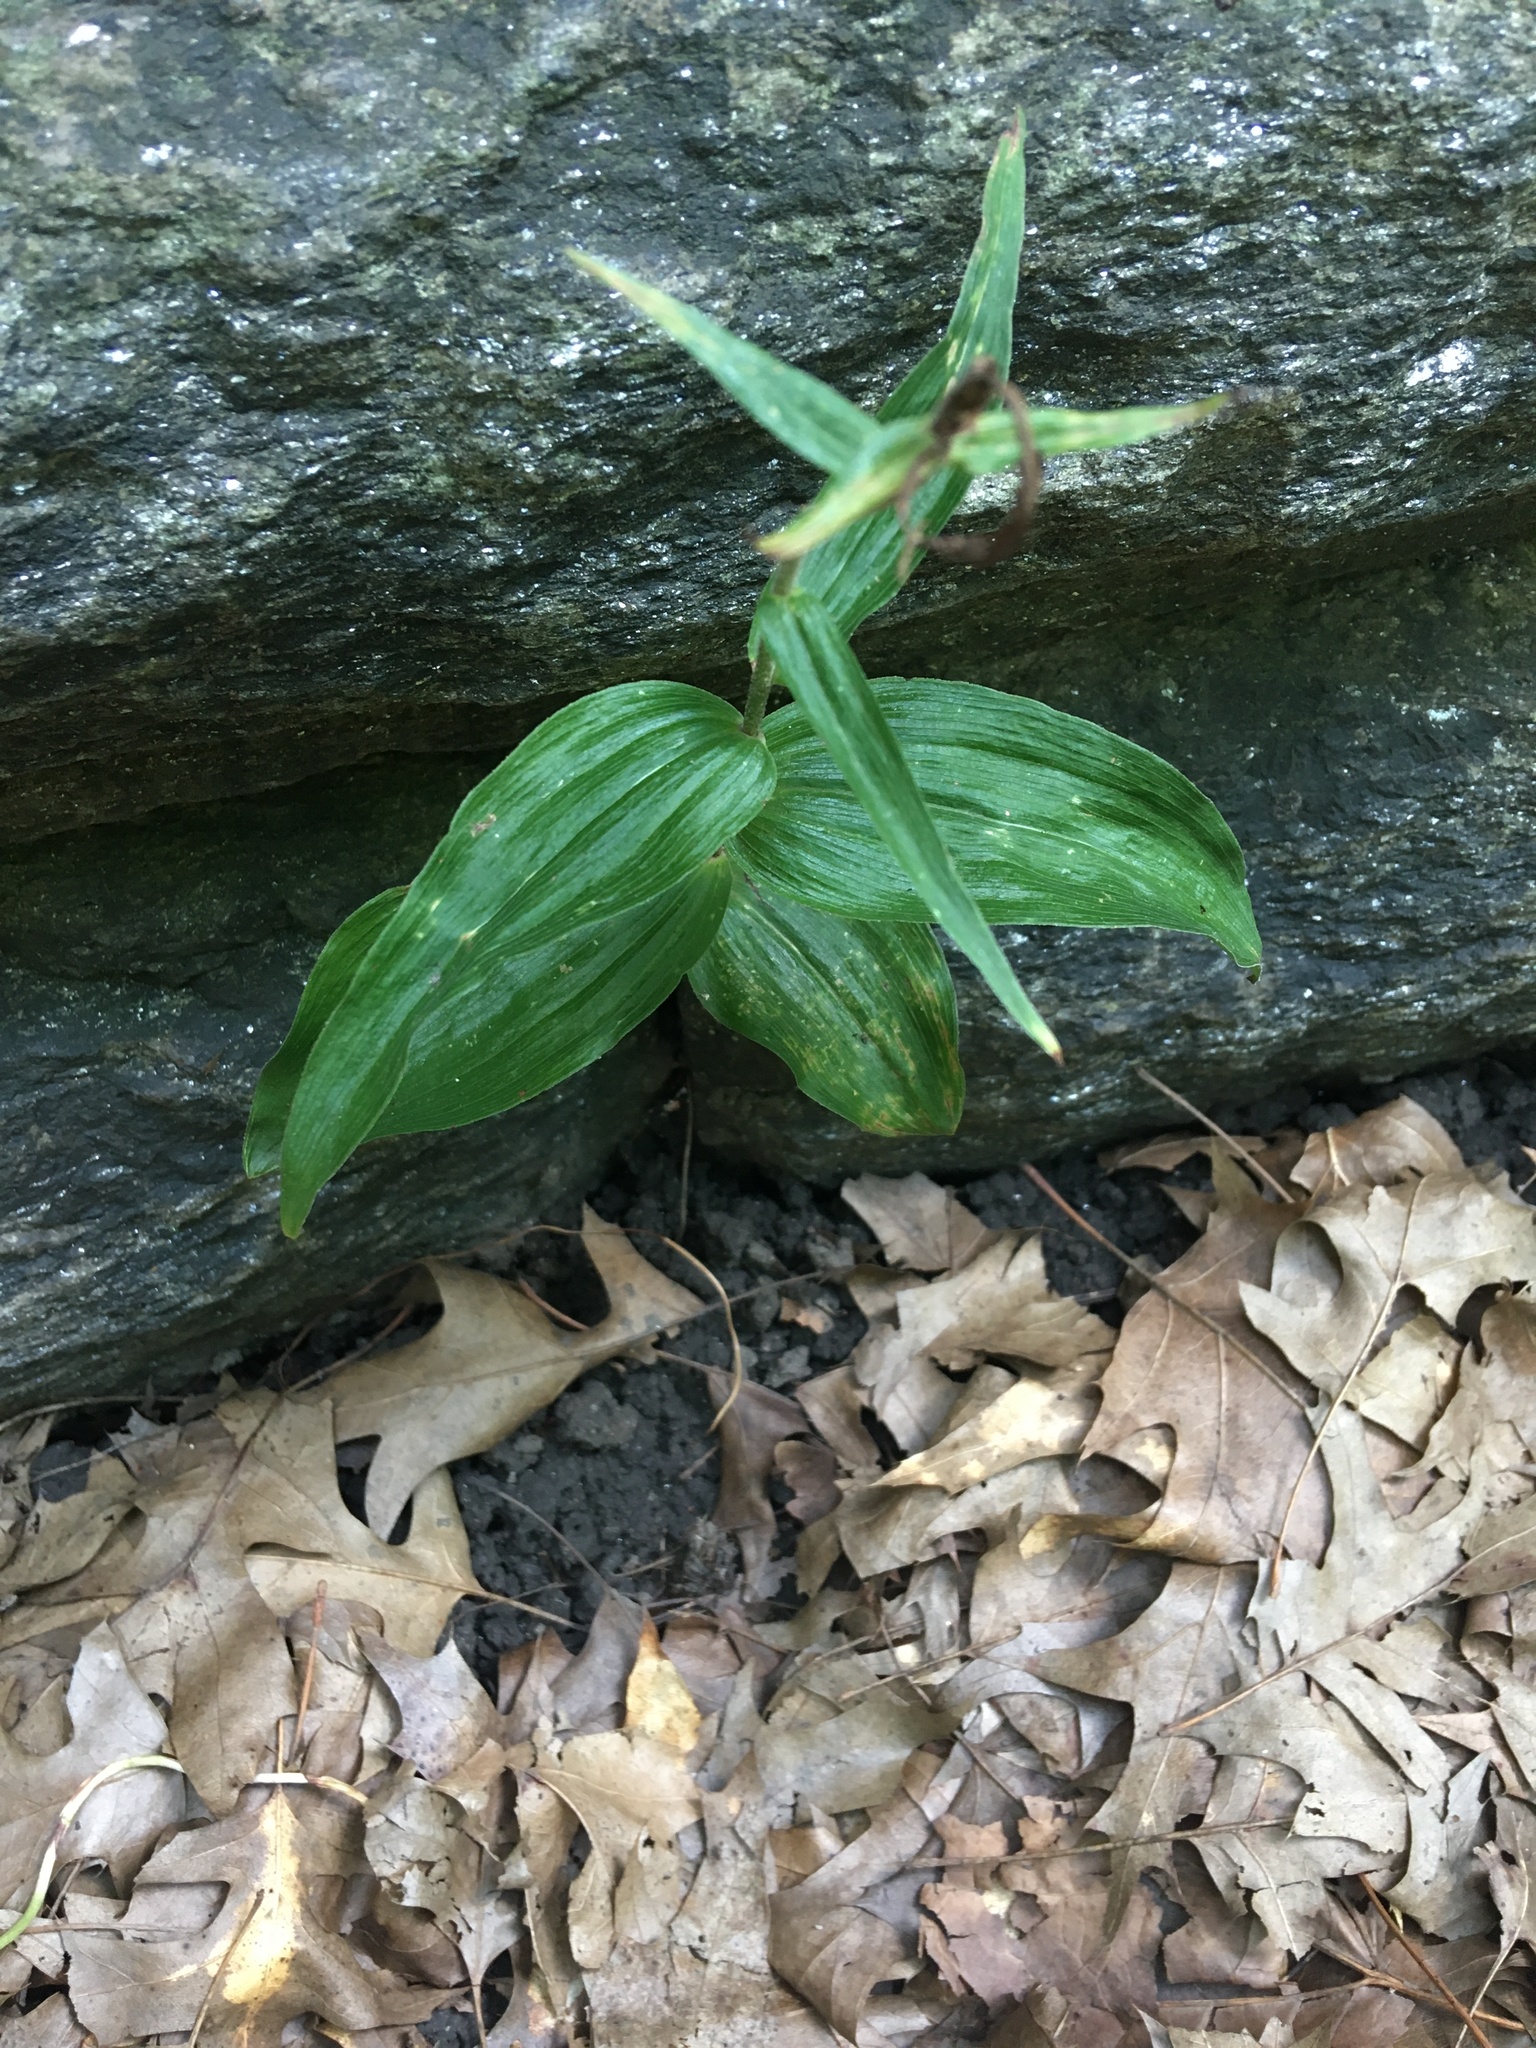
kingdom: Plantae
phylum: Tracheophyta
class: Liliopsida
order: Asparagales
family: Orchidaceae
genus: Epipactis
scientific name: Epipactis helleborine
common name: Broad-leaved helleborine
